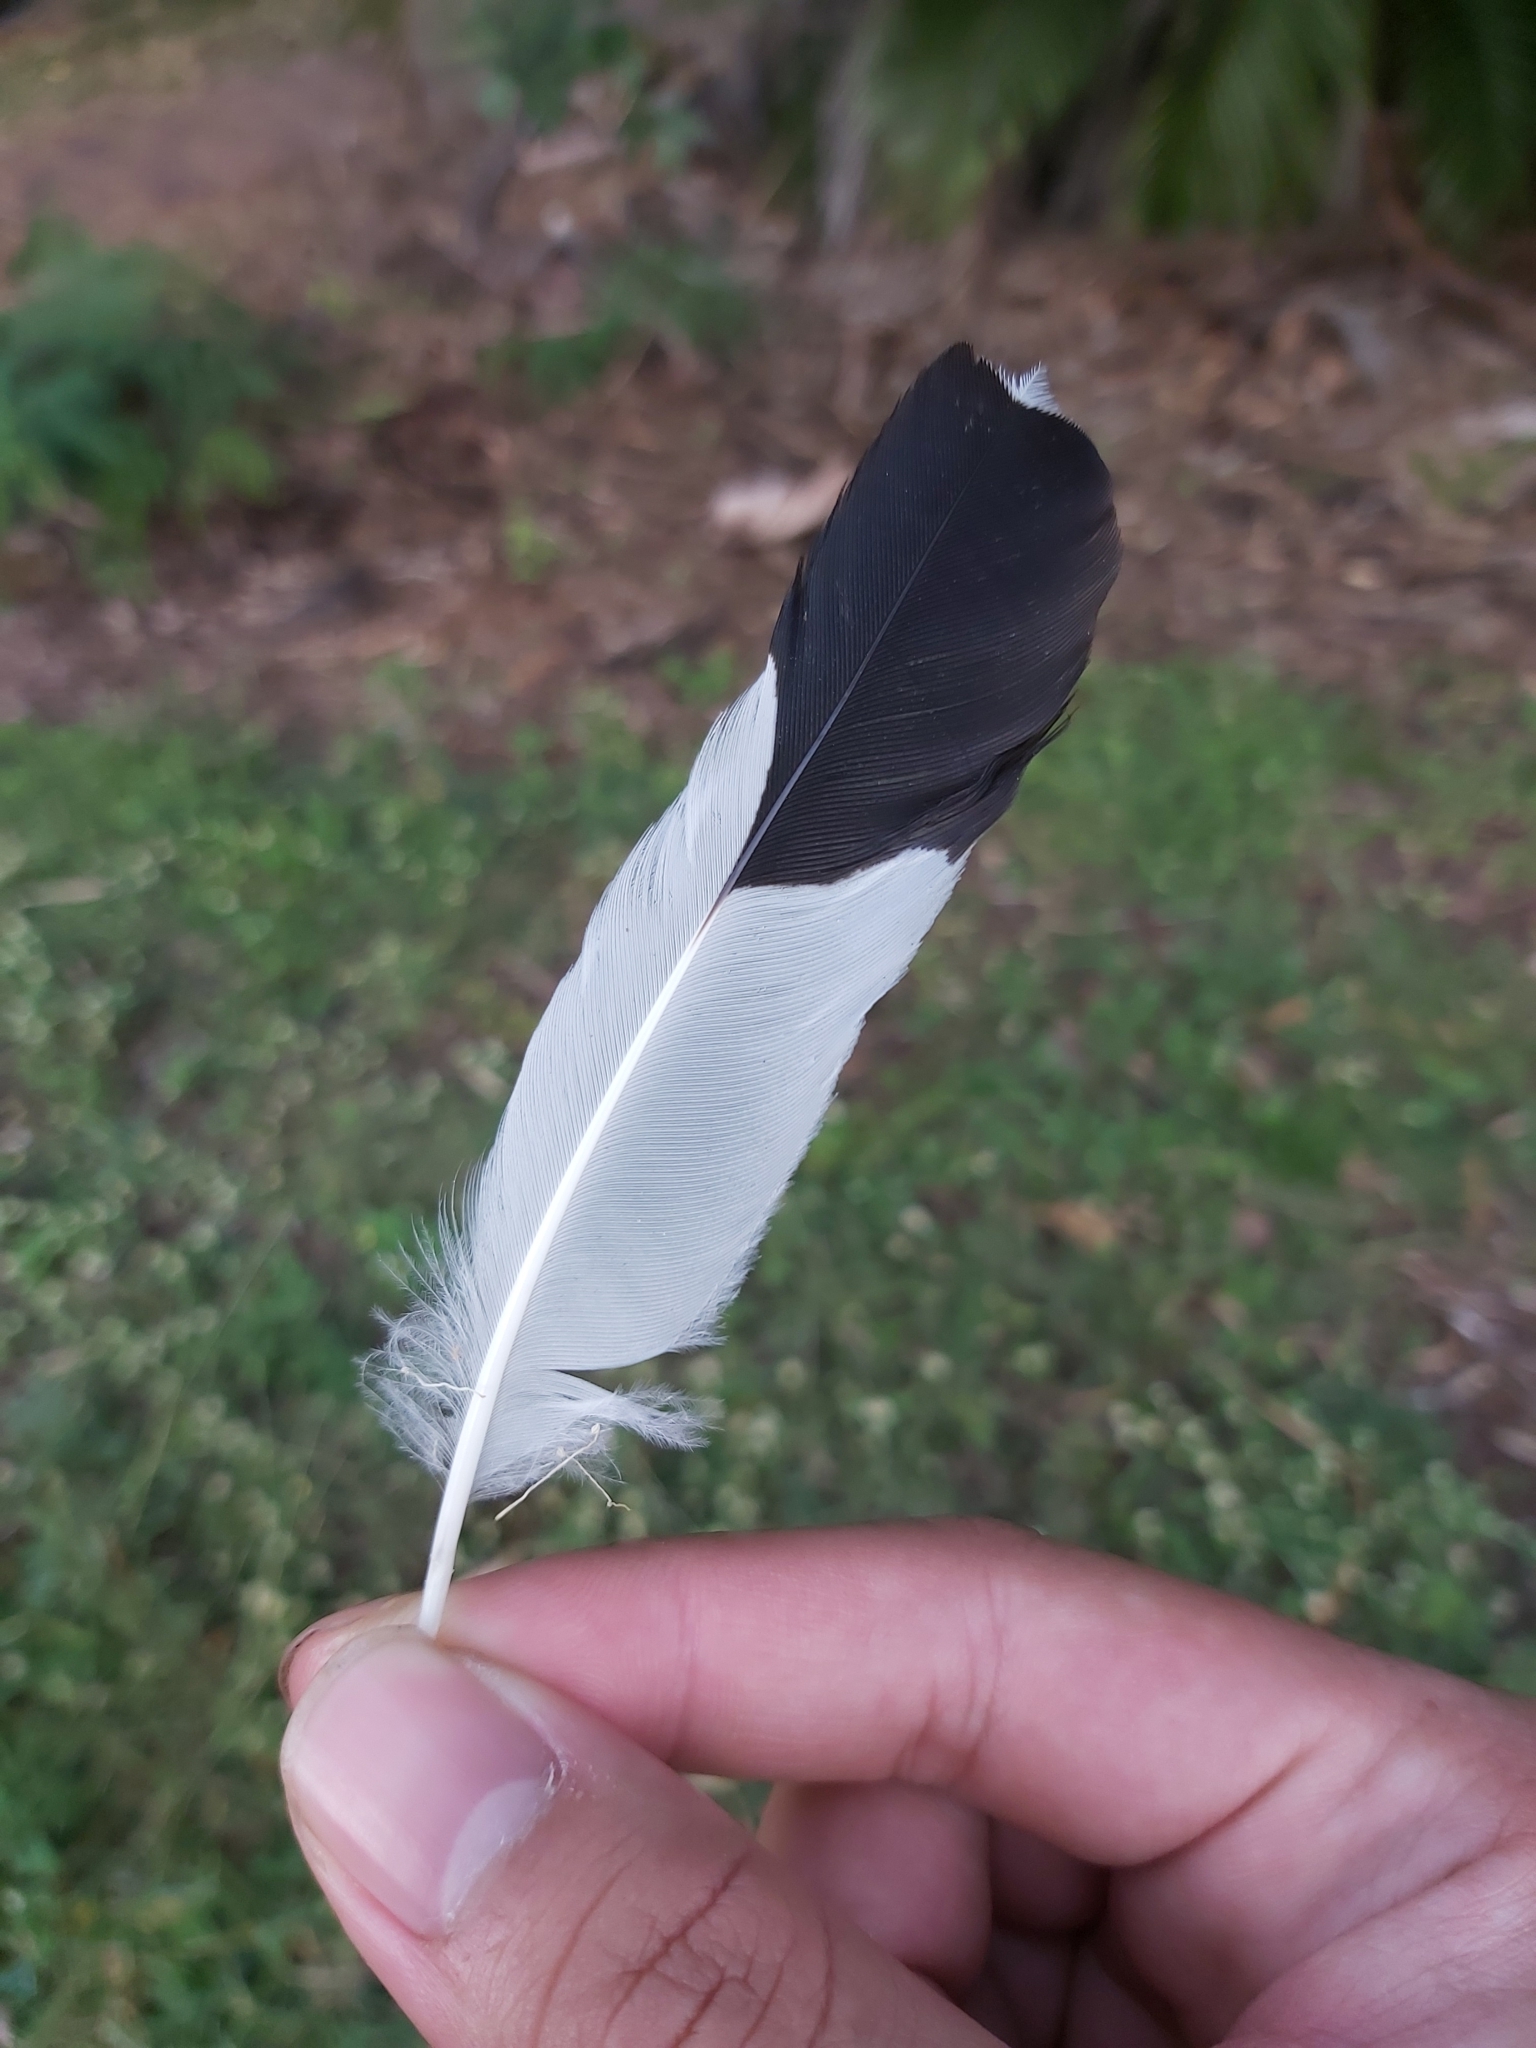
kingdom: Animalia
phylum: Chordata
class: Aves
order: Passeriformes
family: Monarchidae
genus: Grallina
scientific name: Grallina cyanoleuca
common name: Magpie-lark
